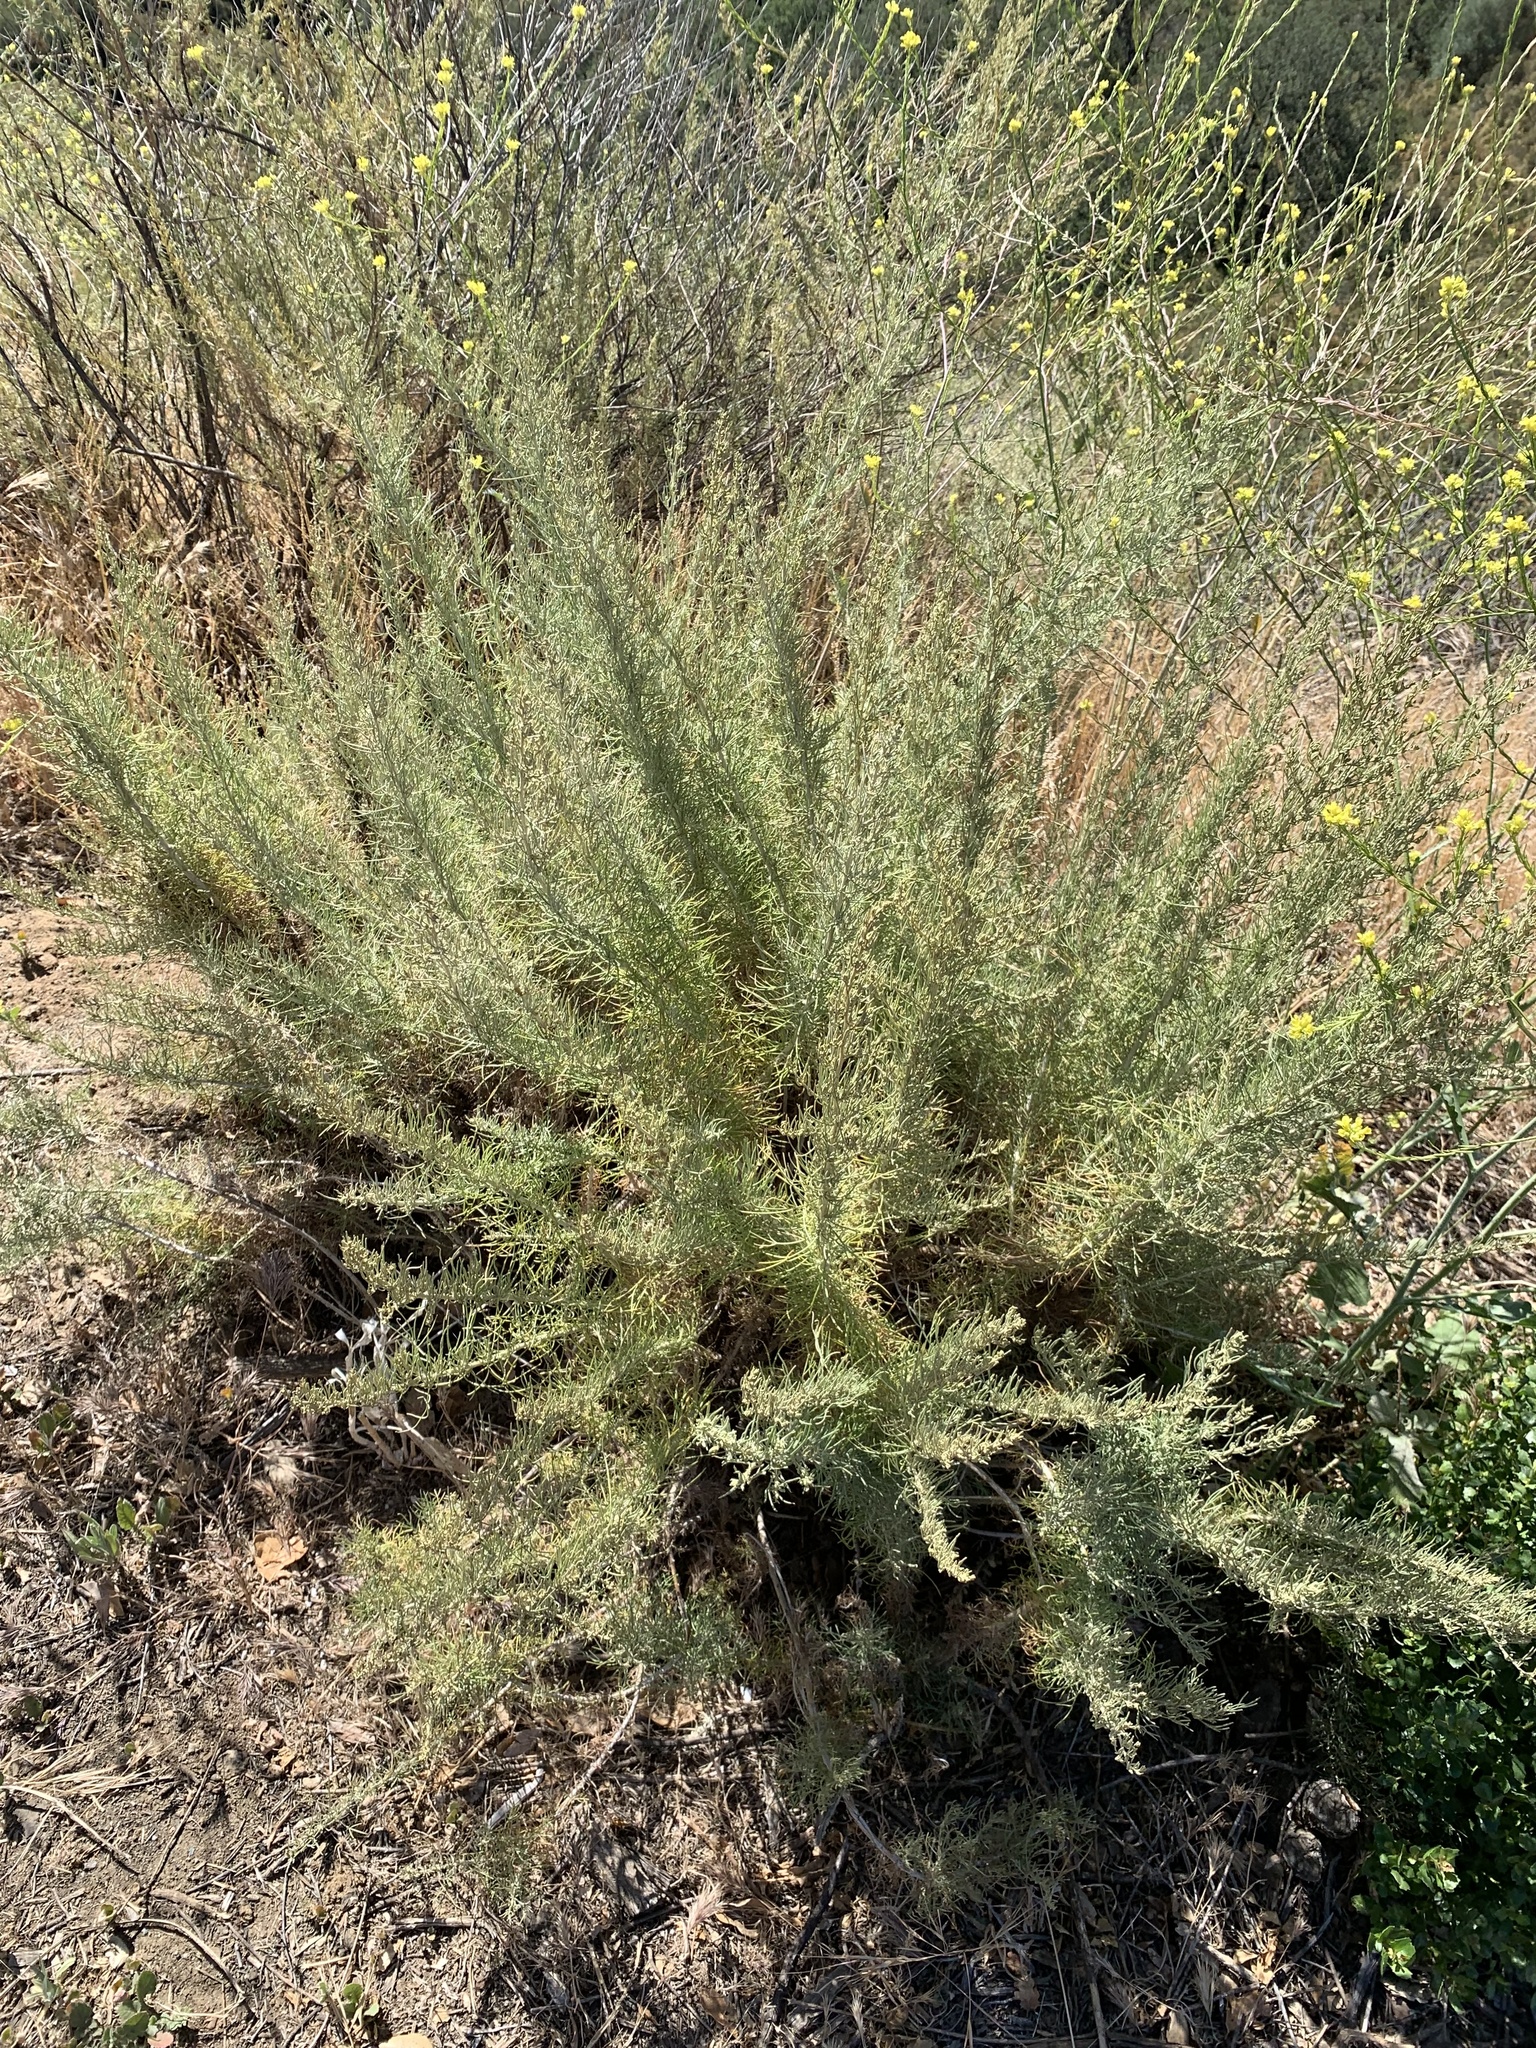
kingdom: Plantae
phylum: Tracheophyta
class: Magnoliopsida
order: Asterales
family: Asteraceae
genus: Artemisia
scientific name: Artemisia californica
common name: California sagebrush
